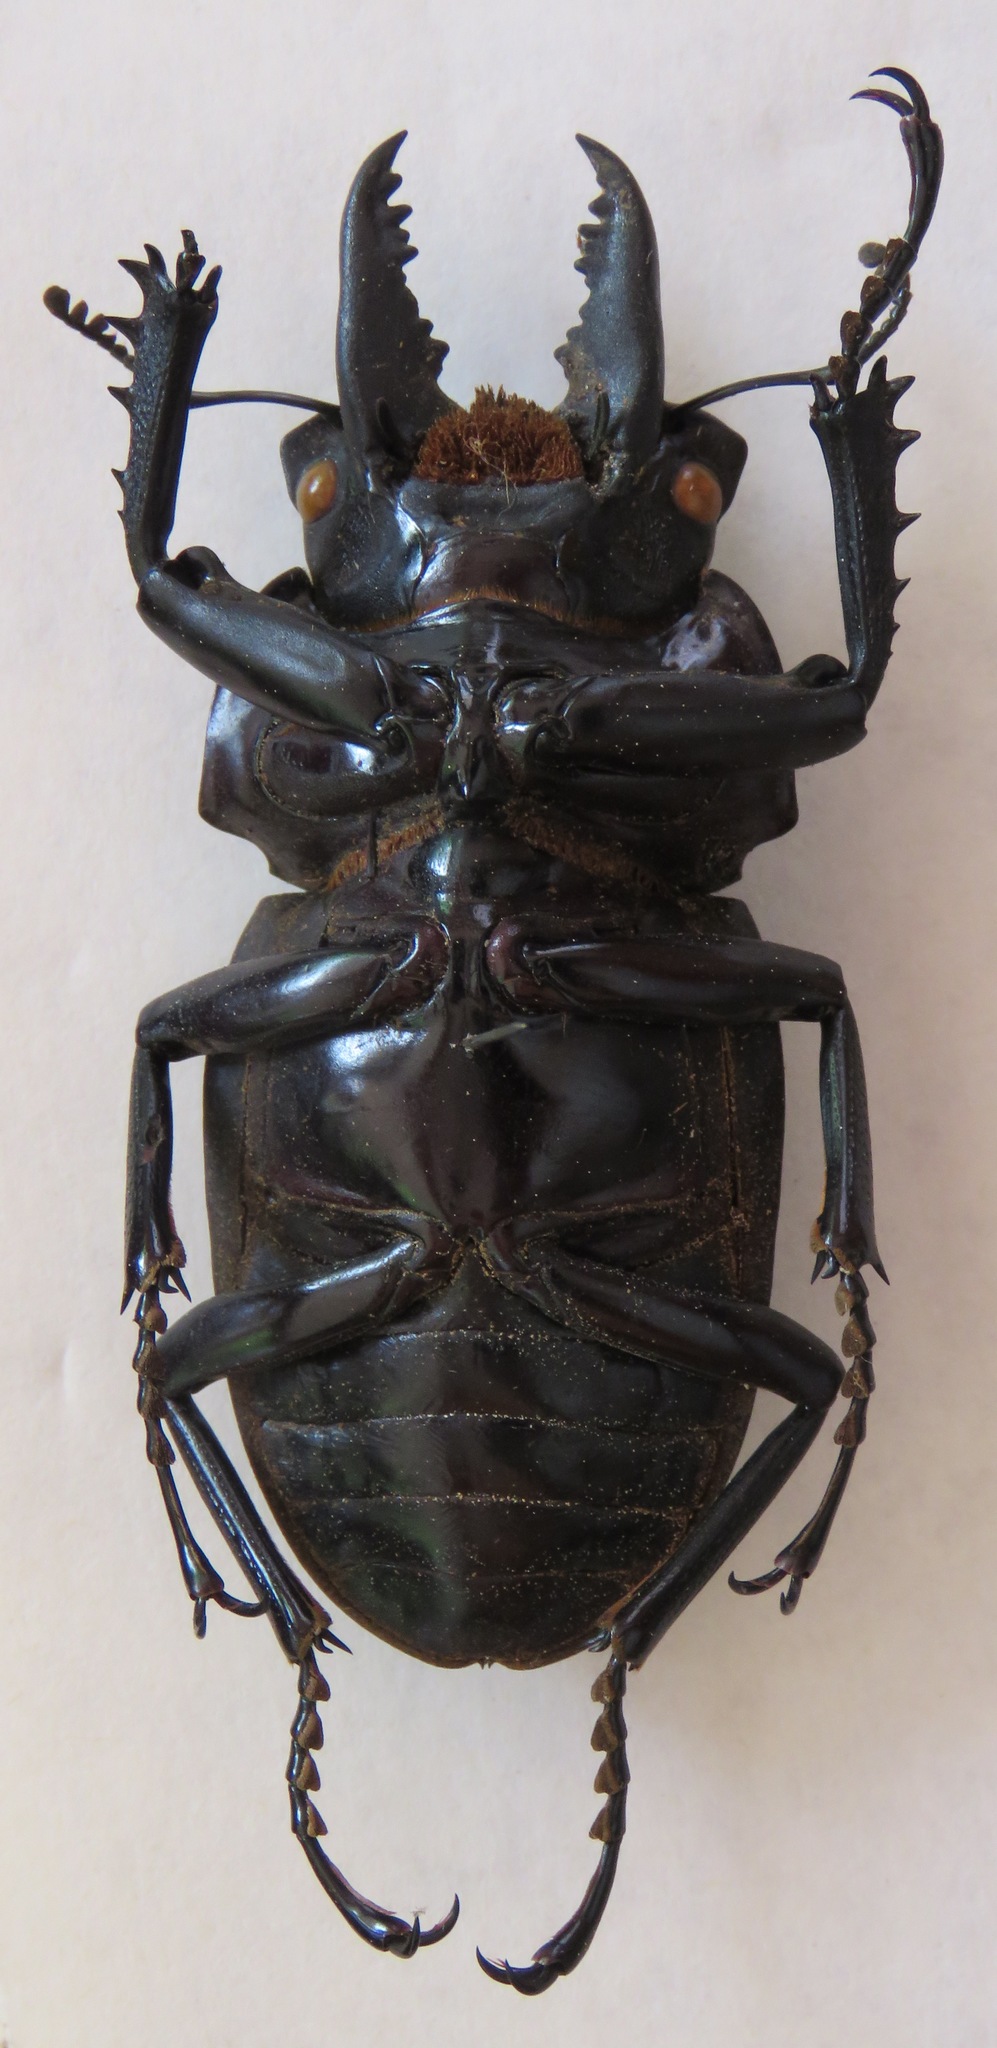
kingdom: Animalia
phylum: Arthropoda
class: Insecta
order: Coleoptera
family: Lucanidae
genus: Neolucanus
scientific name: Neolucanus giganteus
